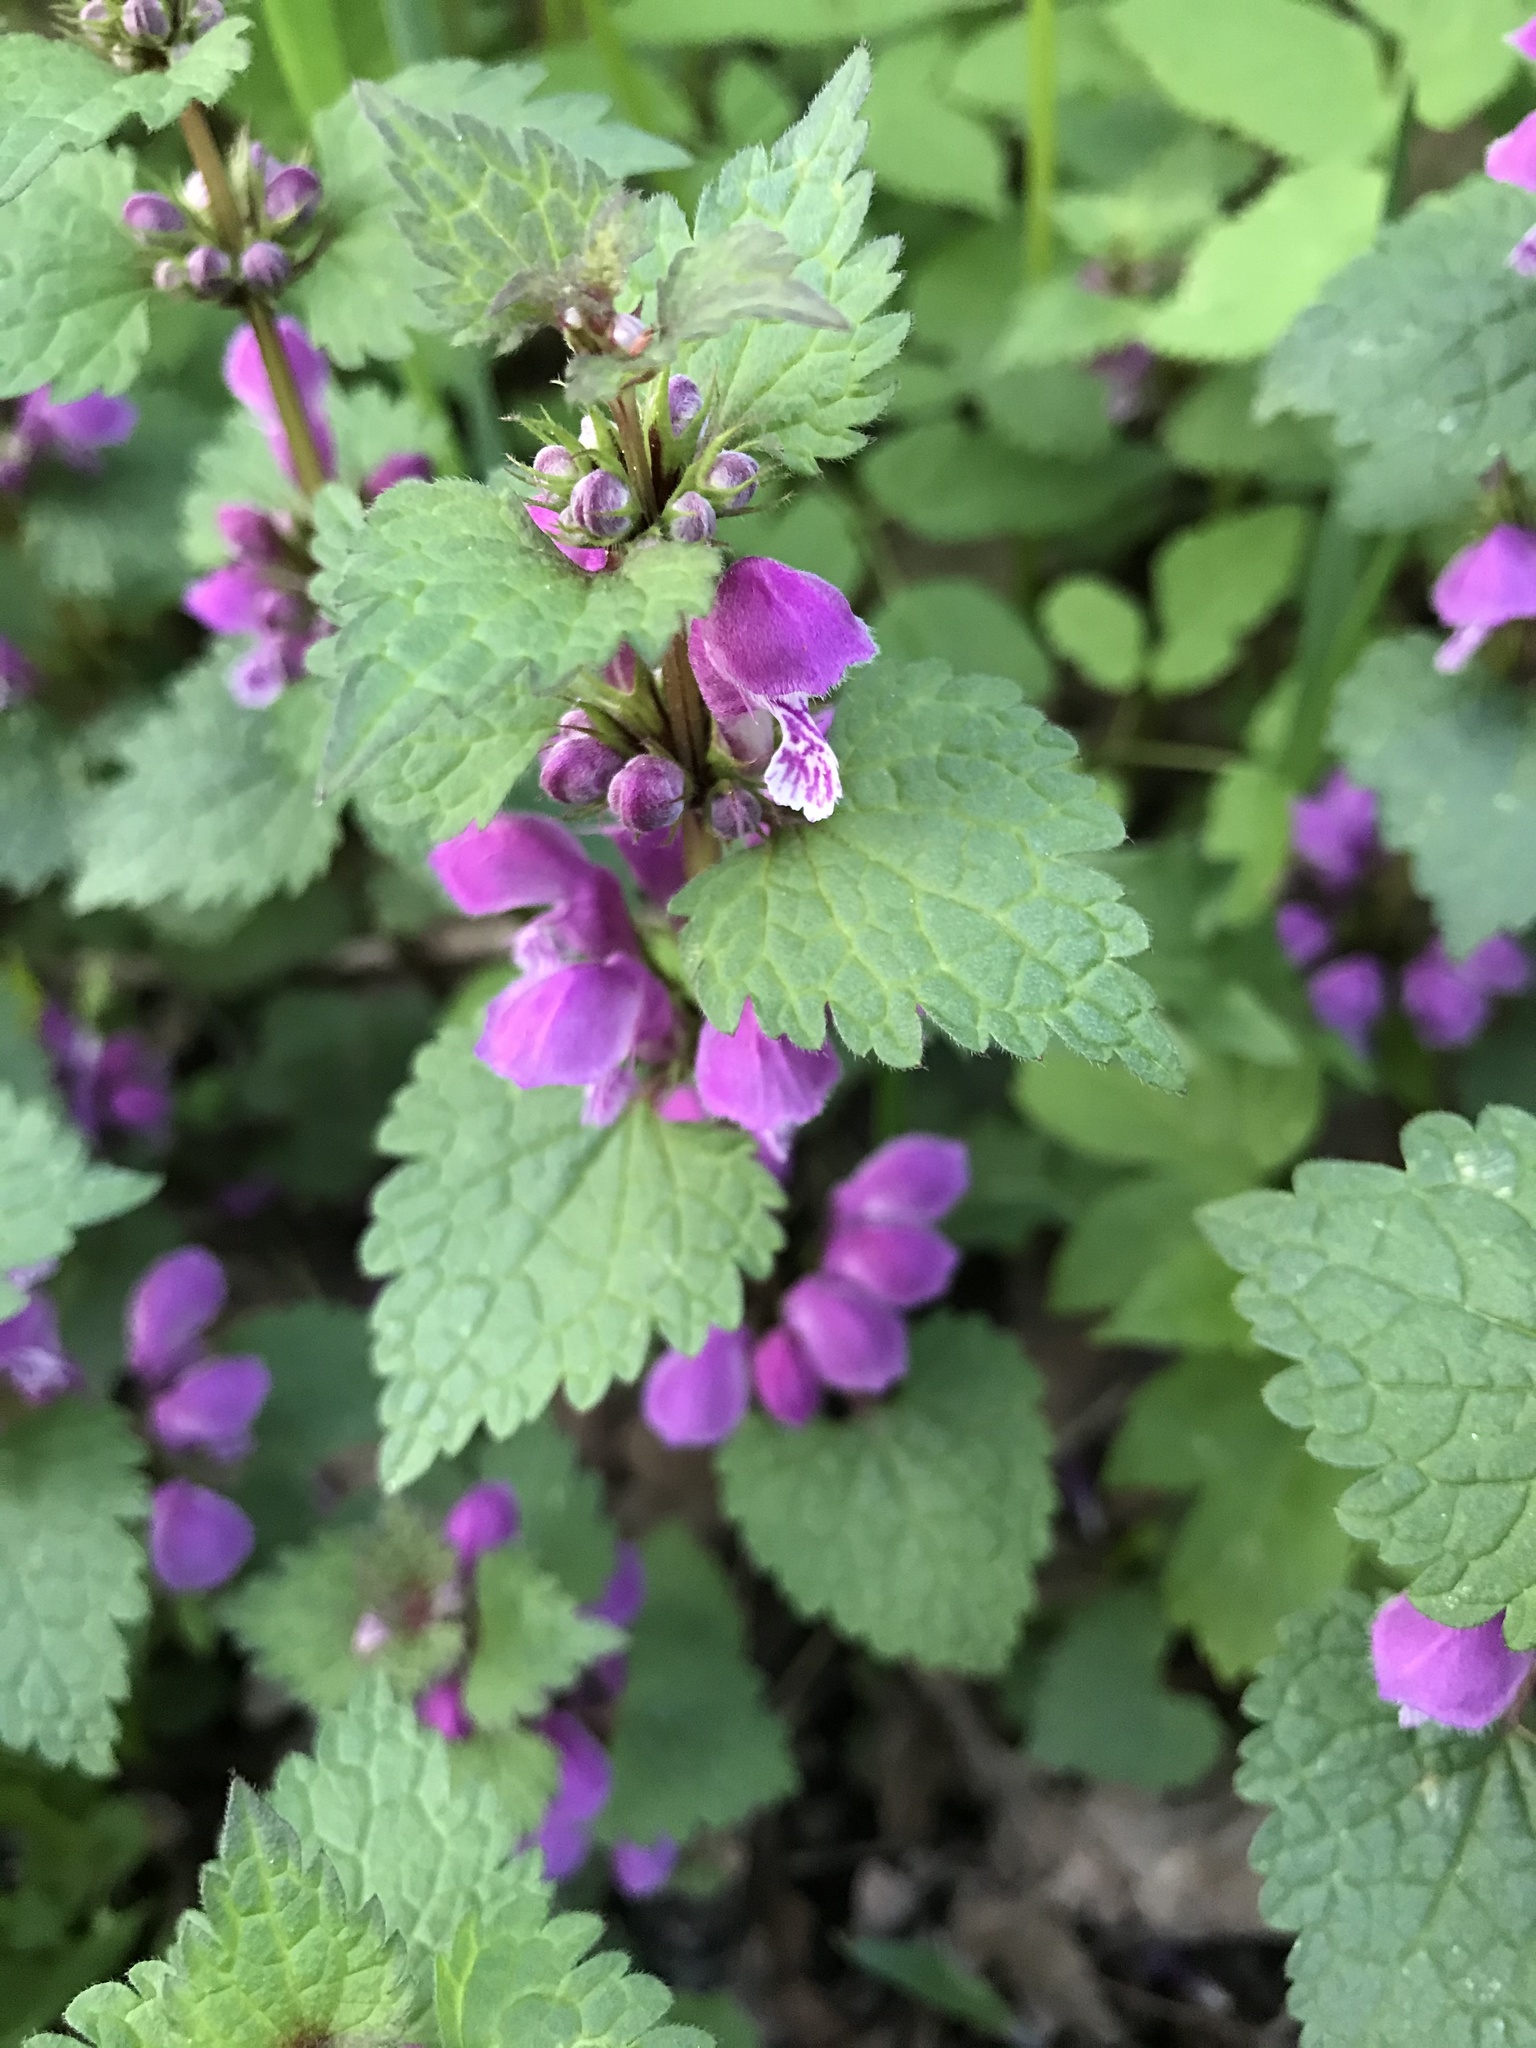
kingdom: Plantae
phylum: Tracheophyta
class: Magnoliopsida
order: Lamiales
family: Lamiaceae
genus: Lamium
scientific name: Lamium maculatum
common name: Spotted dead-nettle
